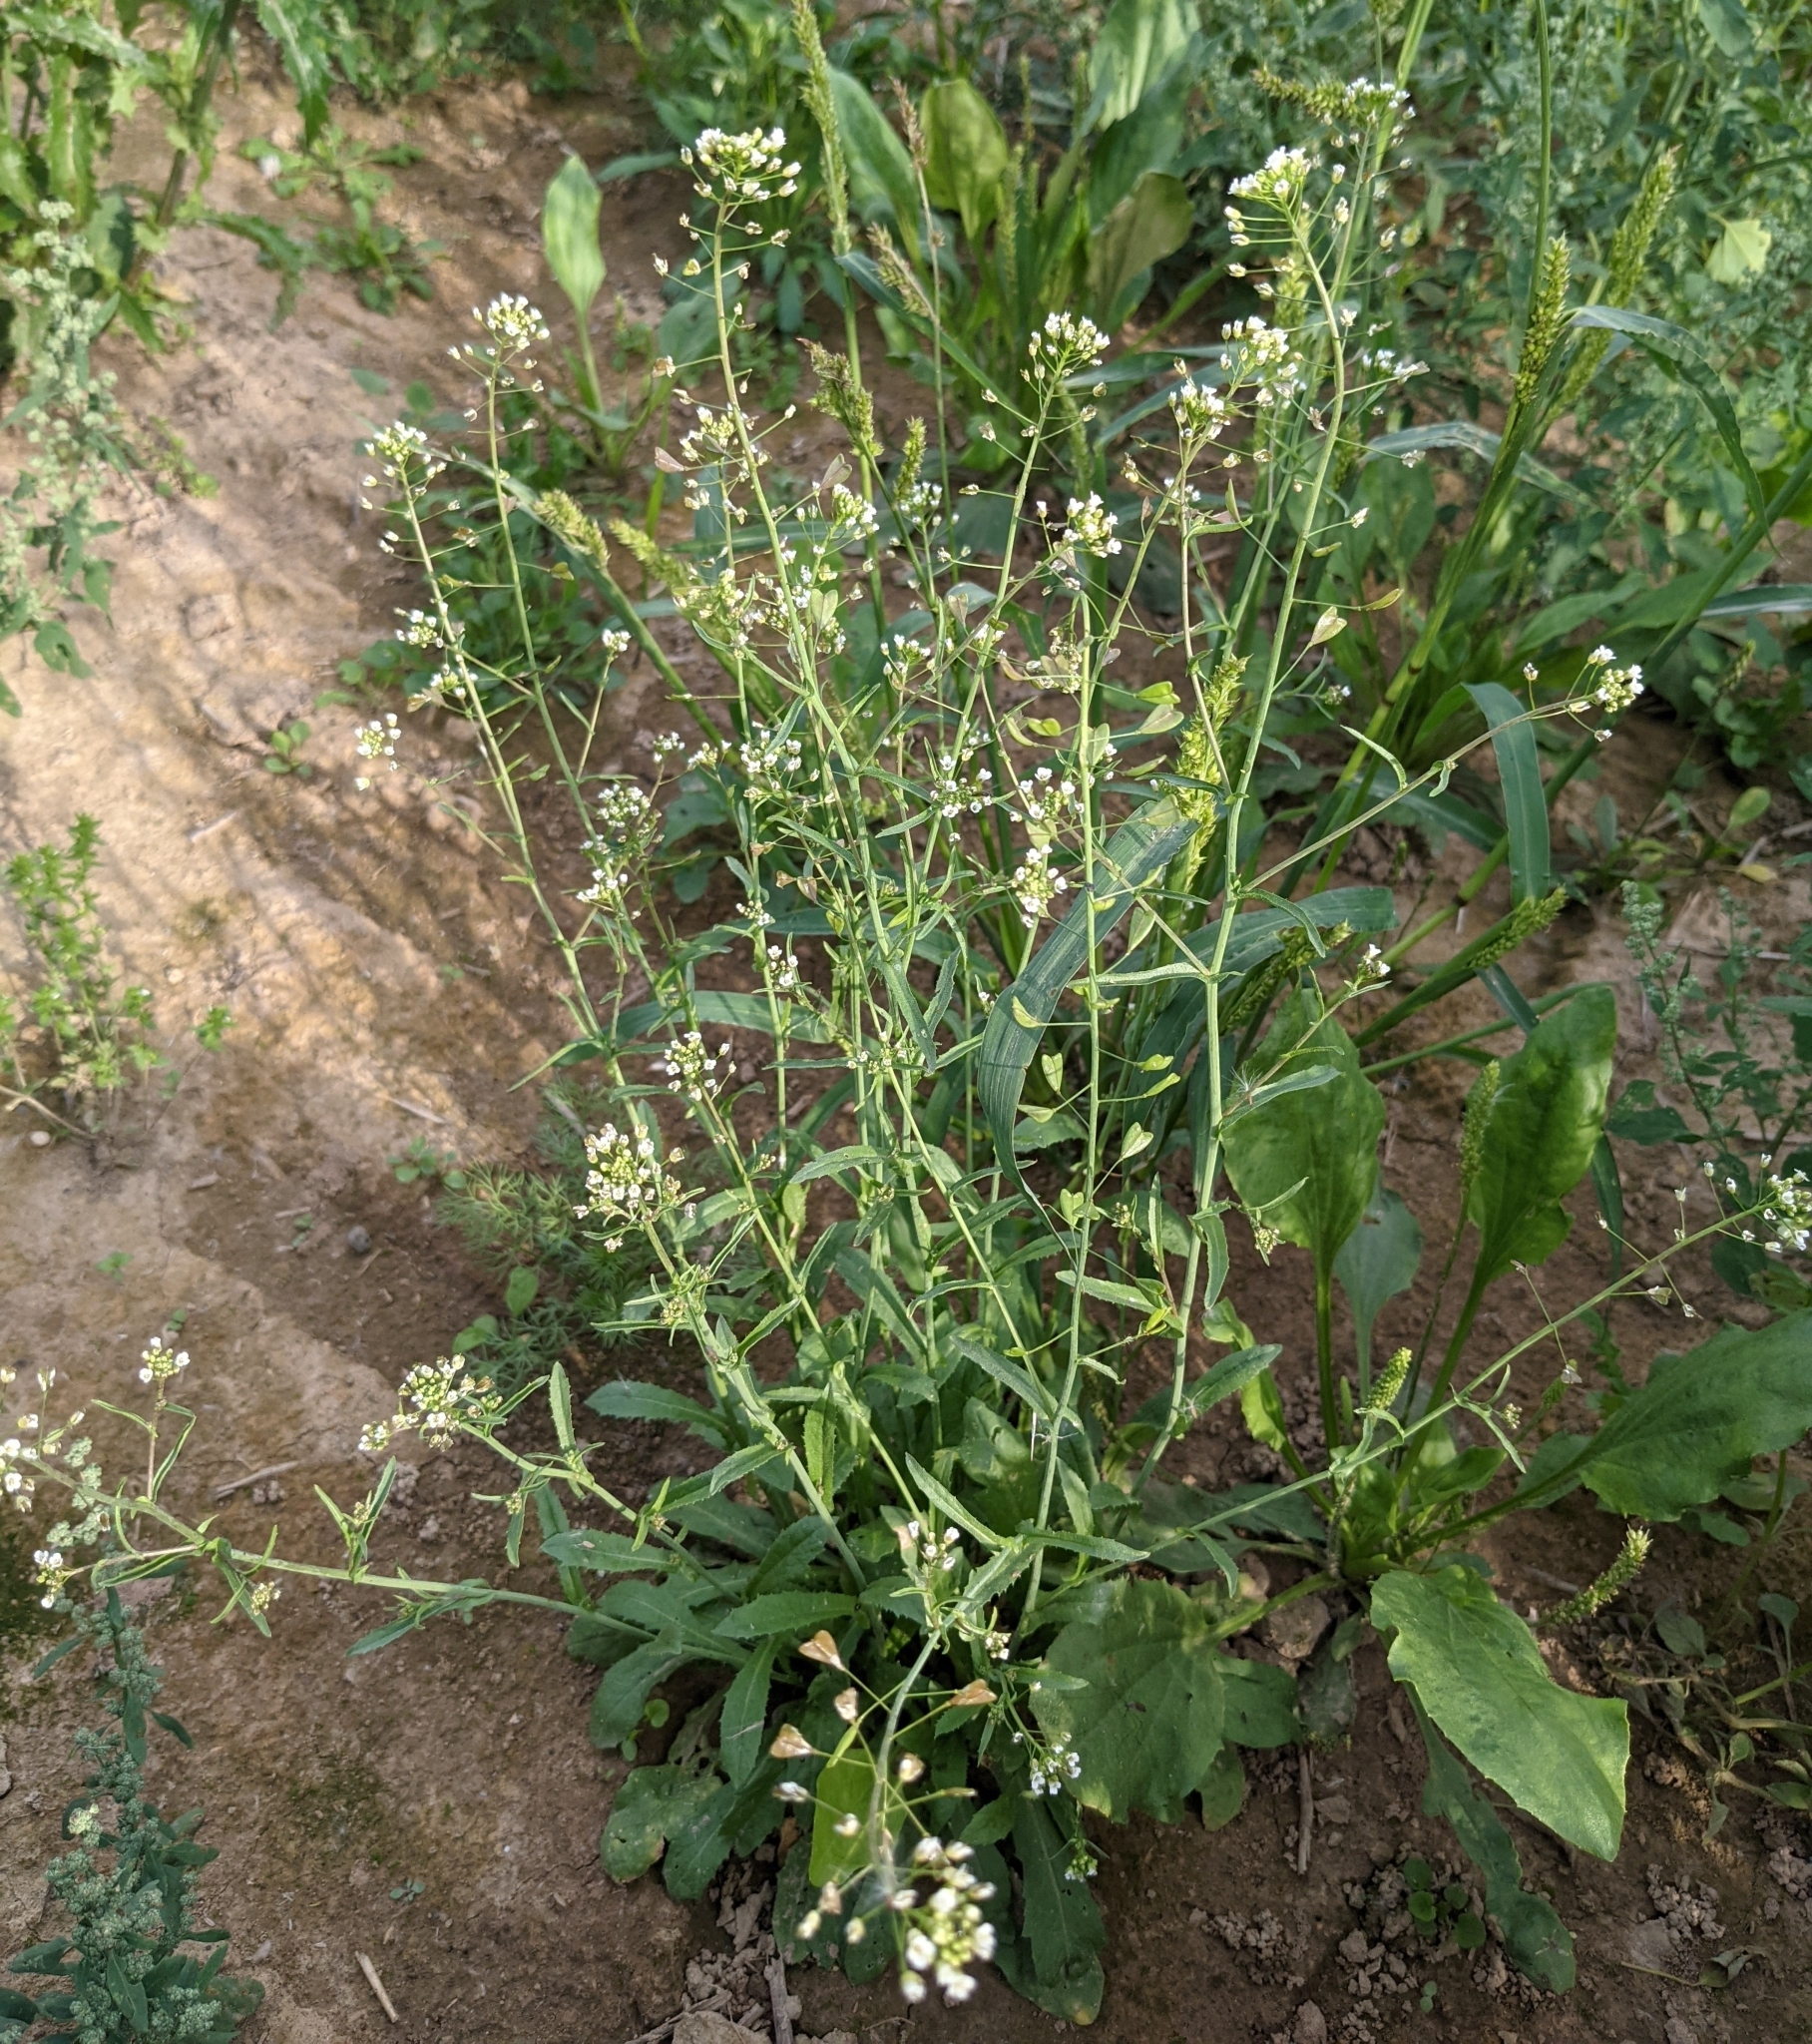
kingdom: Plantae
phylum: Tracheophyta
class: Magnoliopsida
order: Brassicales
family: Brassicaceae
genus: Capsella
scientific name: Capsella bursa-pastoris
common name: Shepherd's purse
